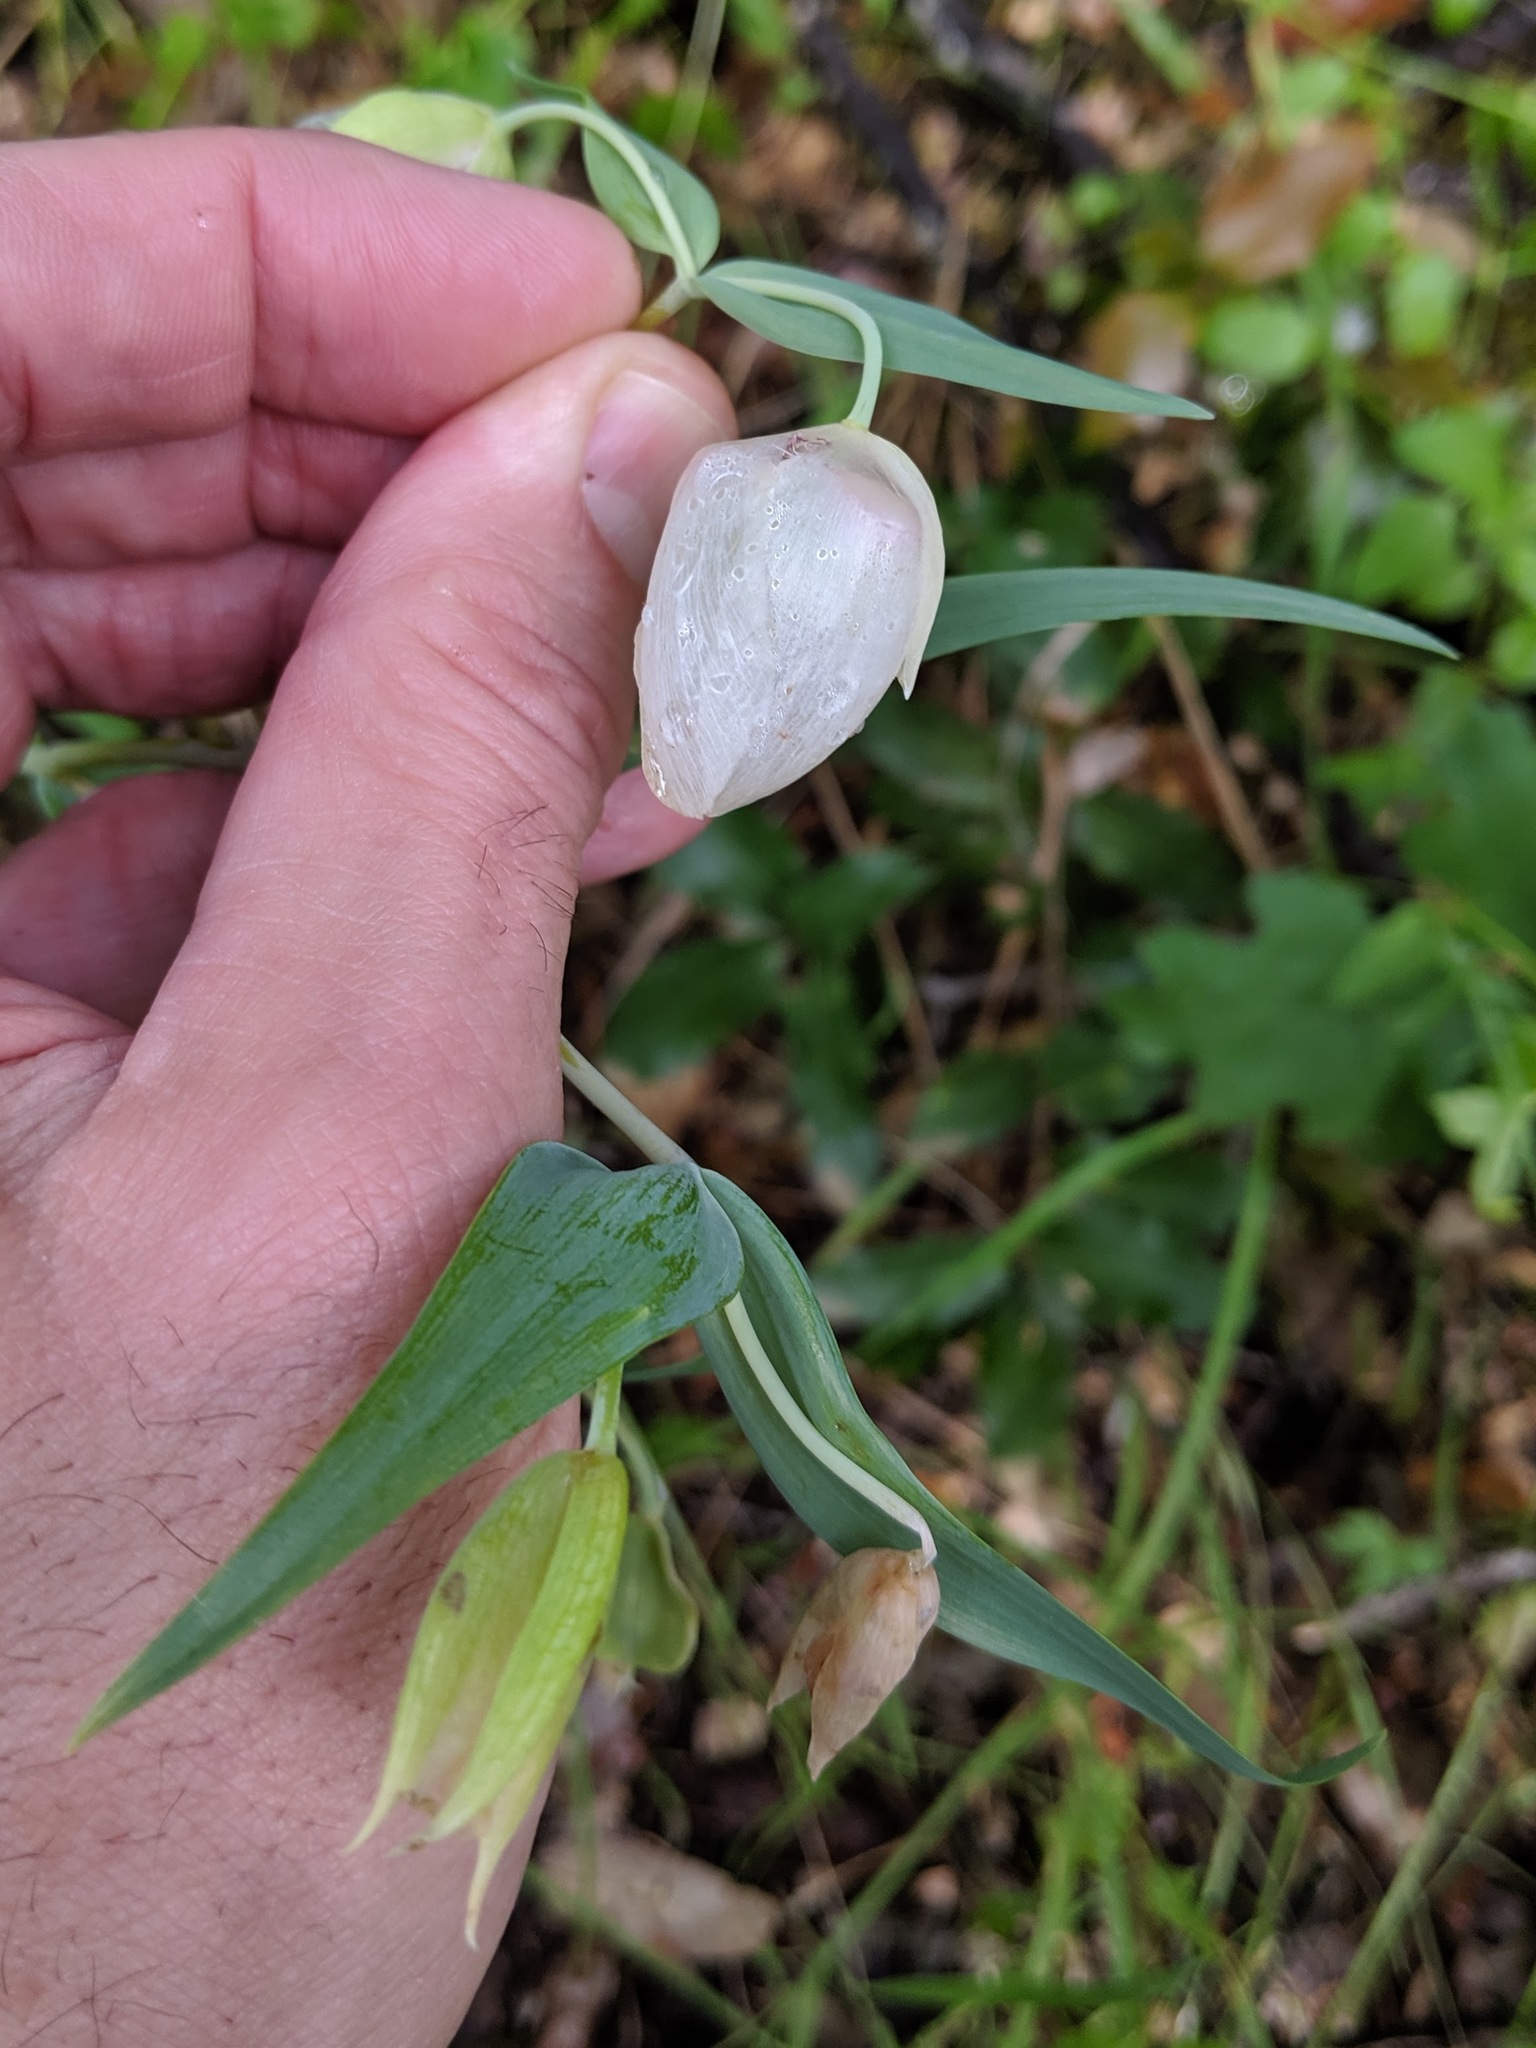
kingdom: Plantae
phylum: Tracheophyta
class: Liliopsida
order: Liliales
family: Liliaceae
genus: Calochortus
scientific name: Calochortus albus
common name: Fairy-lantern
